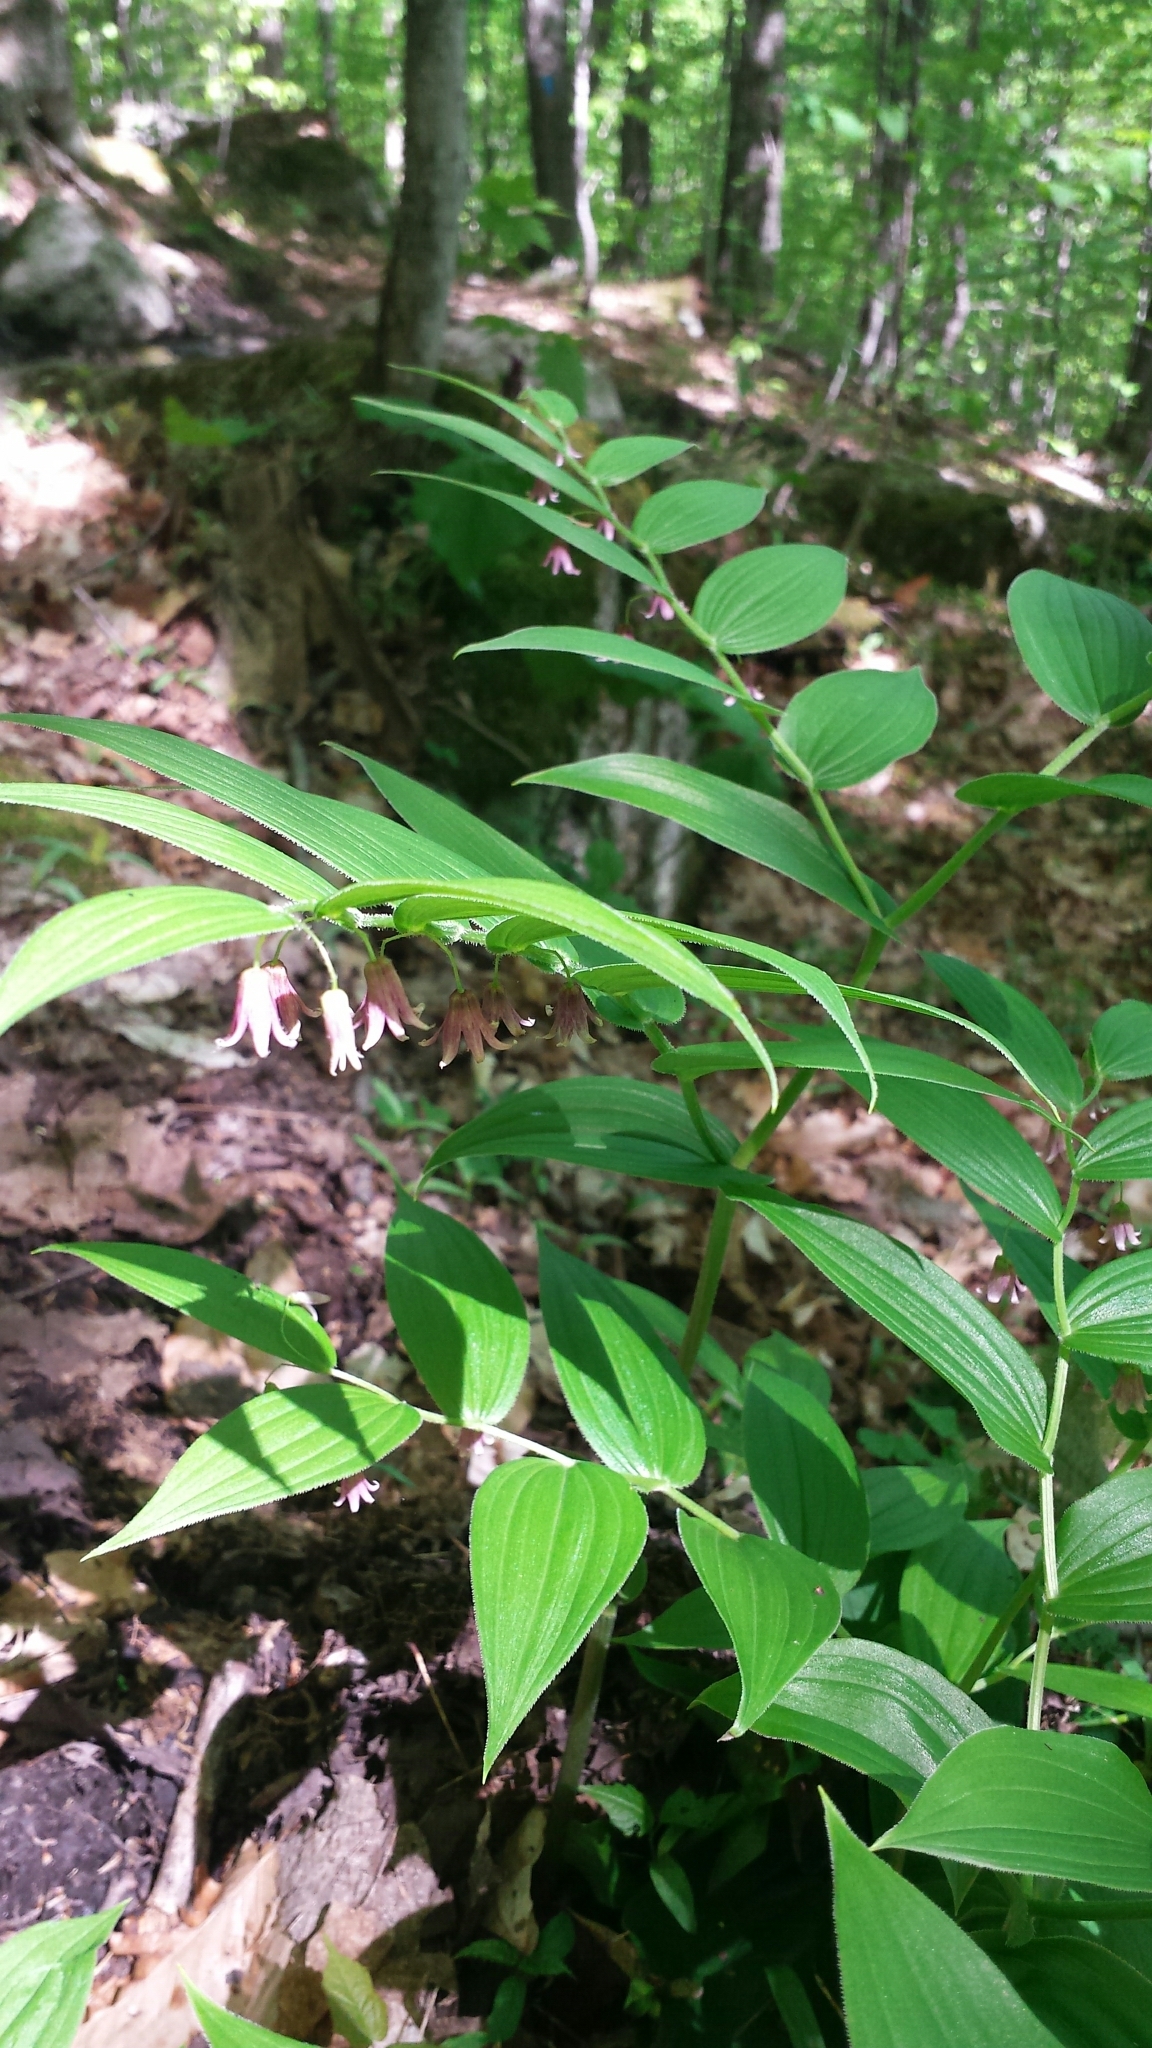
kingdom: Plantae
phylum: Tracheophyta
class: Liliopsida
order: Liliales
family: Liliaceae
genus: Streptopus
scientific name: Streptopus lanceolatus
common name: Rose mandarin
